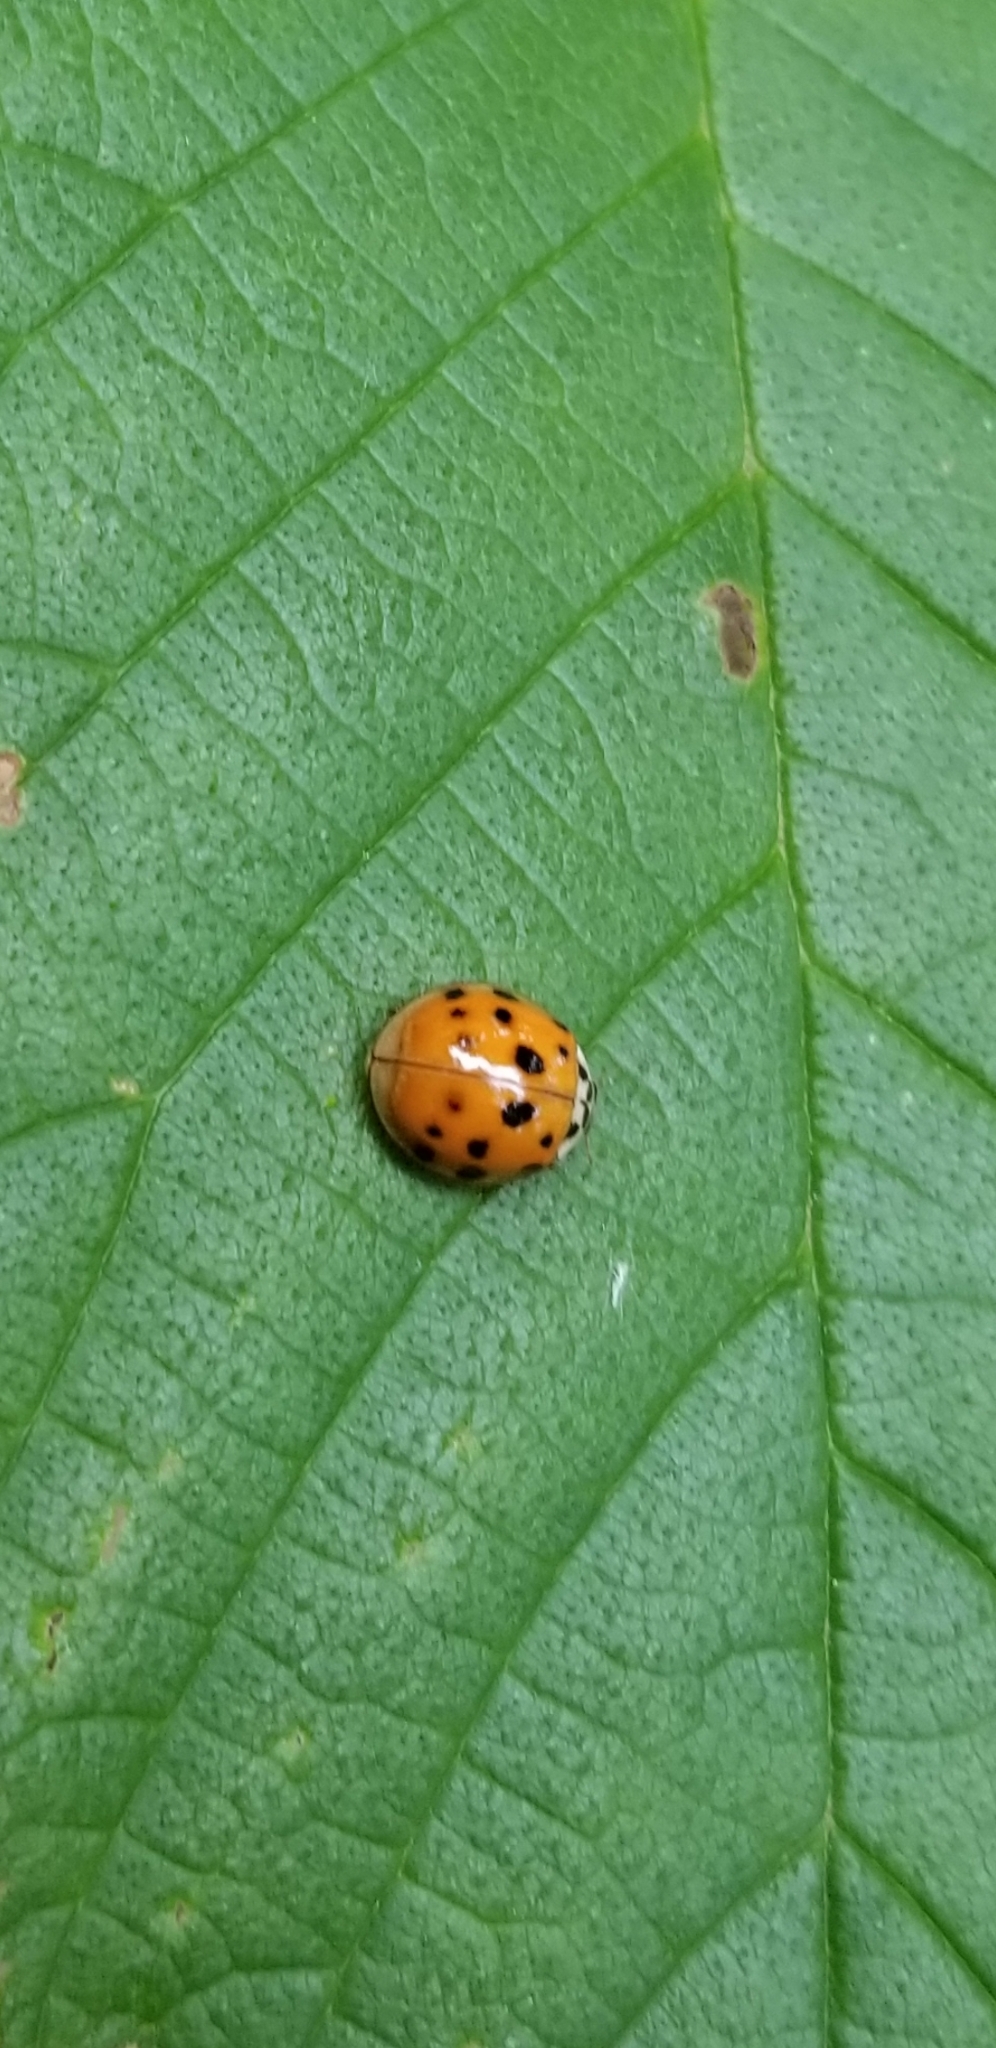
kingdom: Animalia
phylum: Arthropoda
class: Insecta
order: Coleoptera
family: Coccinellidae
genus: Harmonia
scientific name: Harmonia axyridis
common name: Harlequin ladybird
